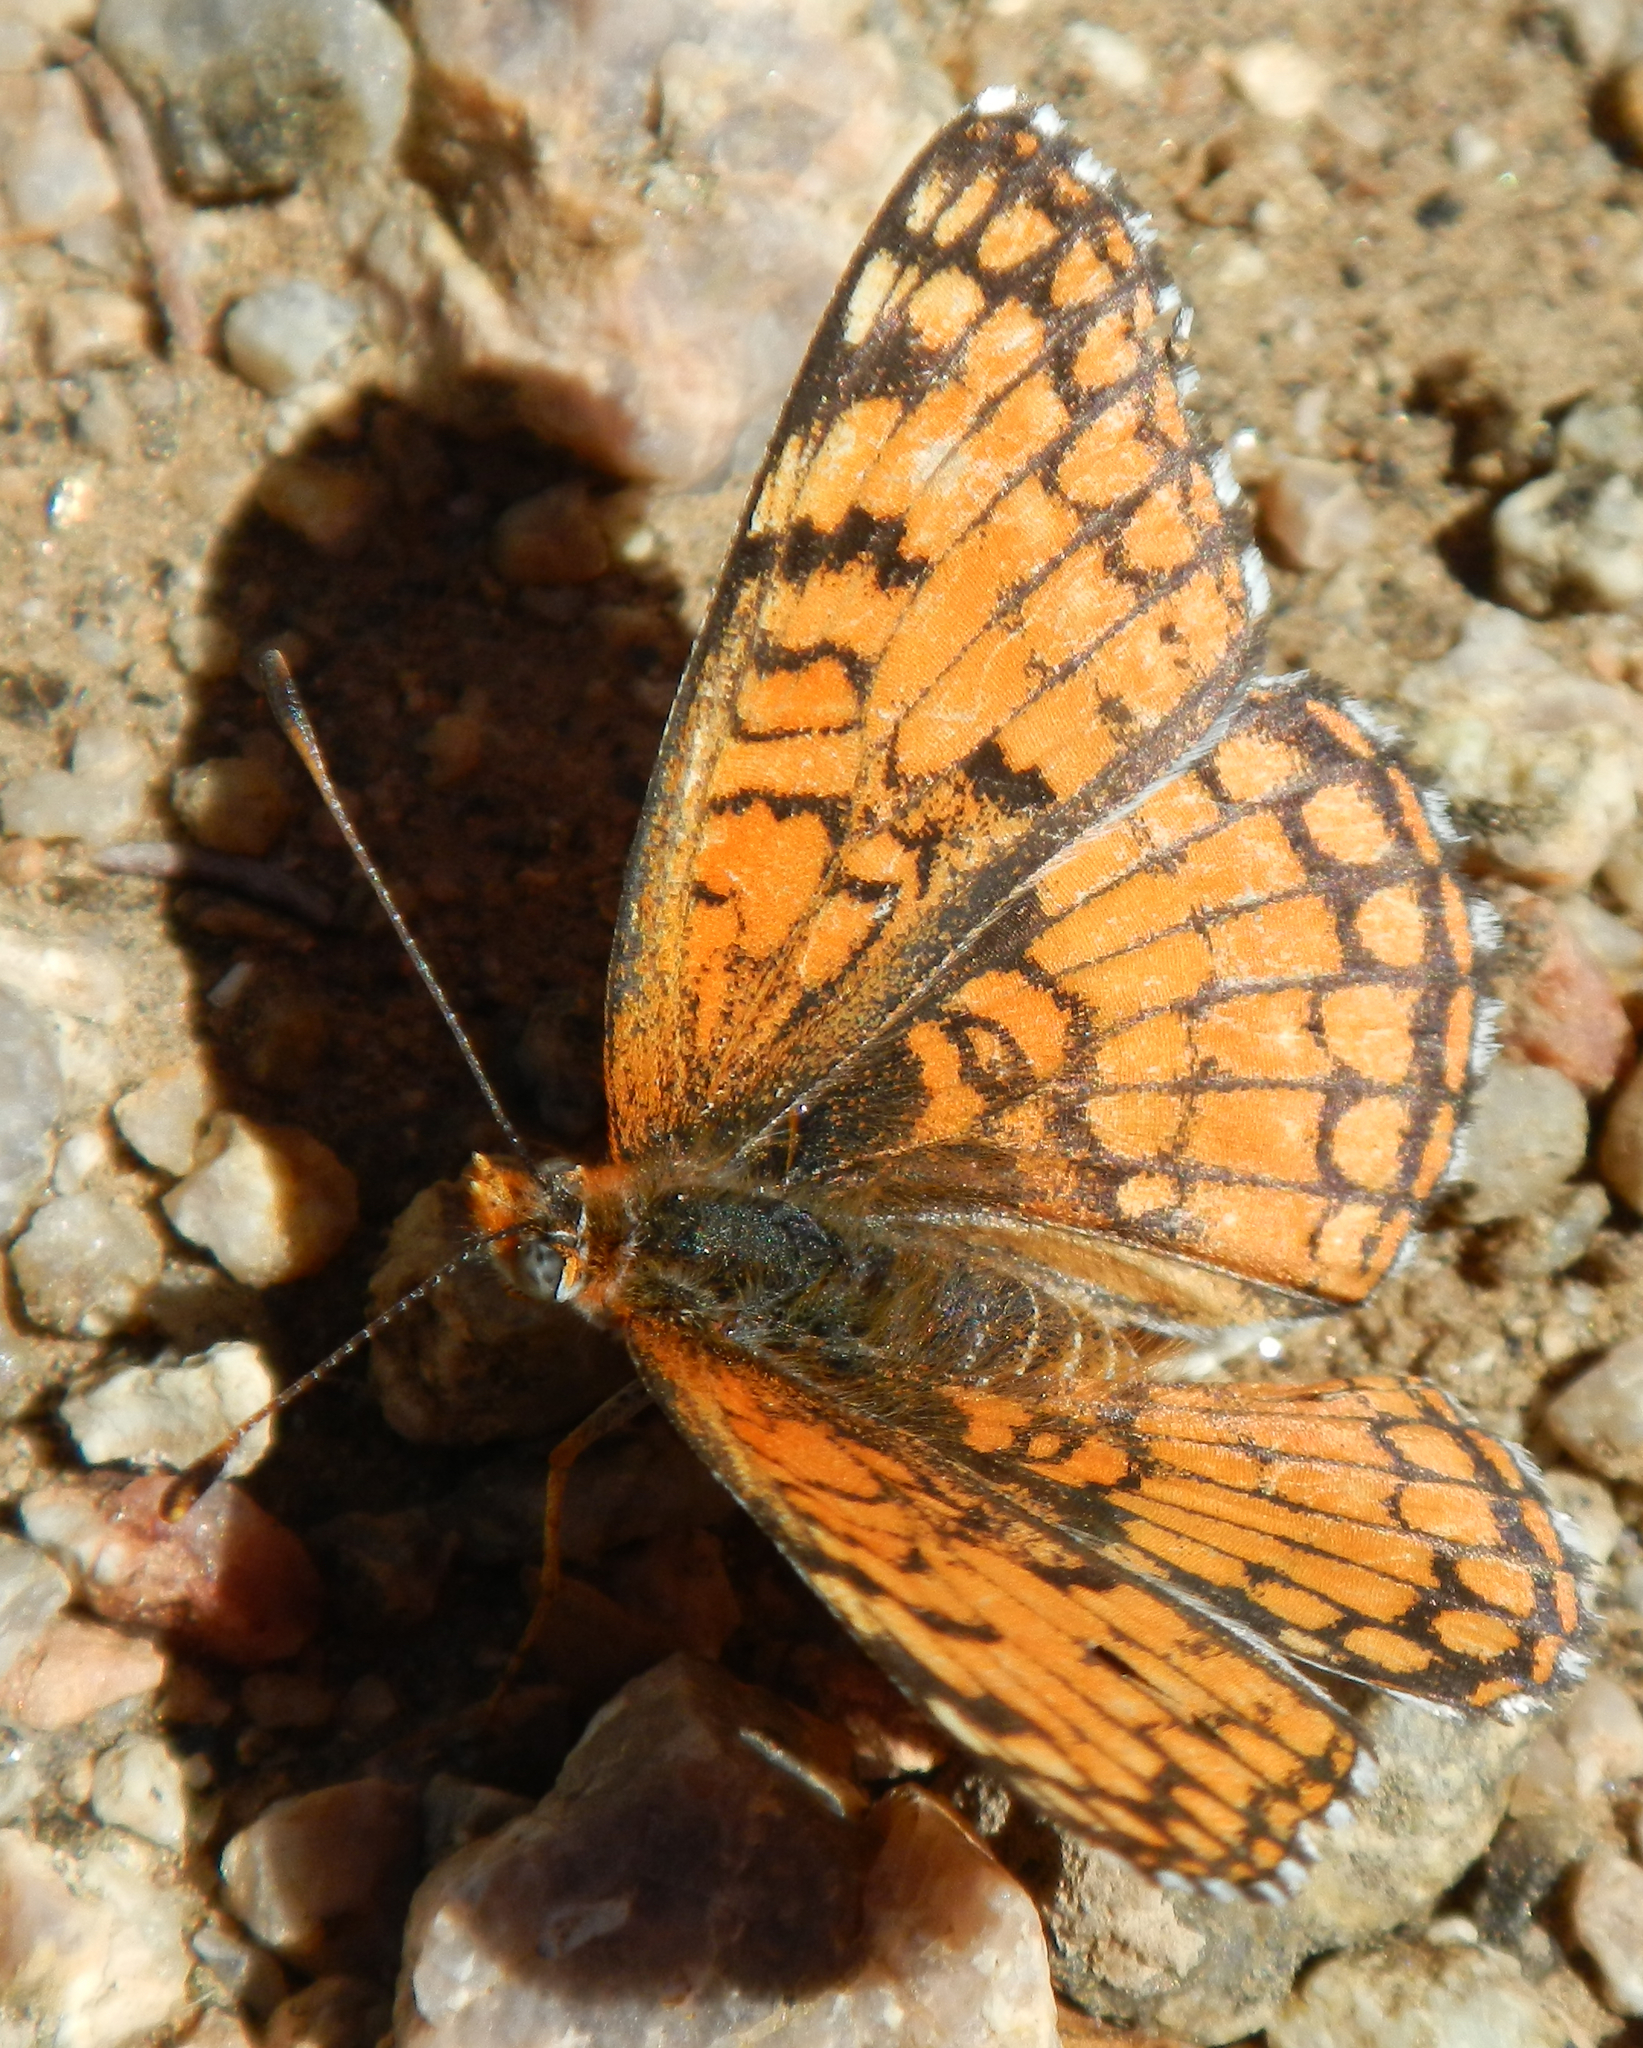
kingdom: Animalia
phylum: Arthropoda
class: Insecta
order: Lepidoptera
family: Nymphalidae
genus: Chlosyne
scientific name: Chlosyne acastus
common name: Sagebrush checkerspot
